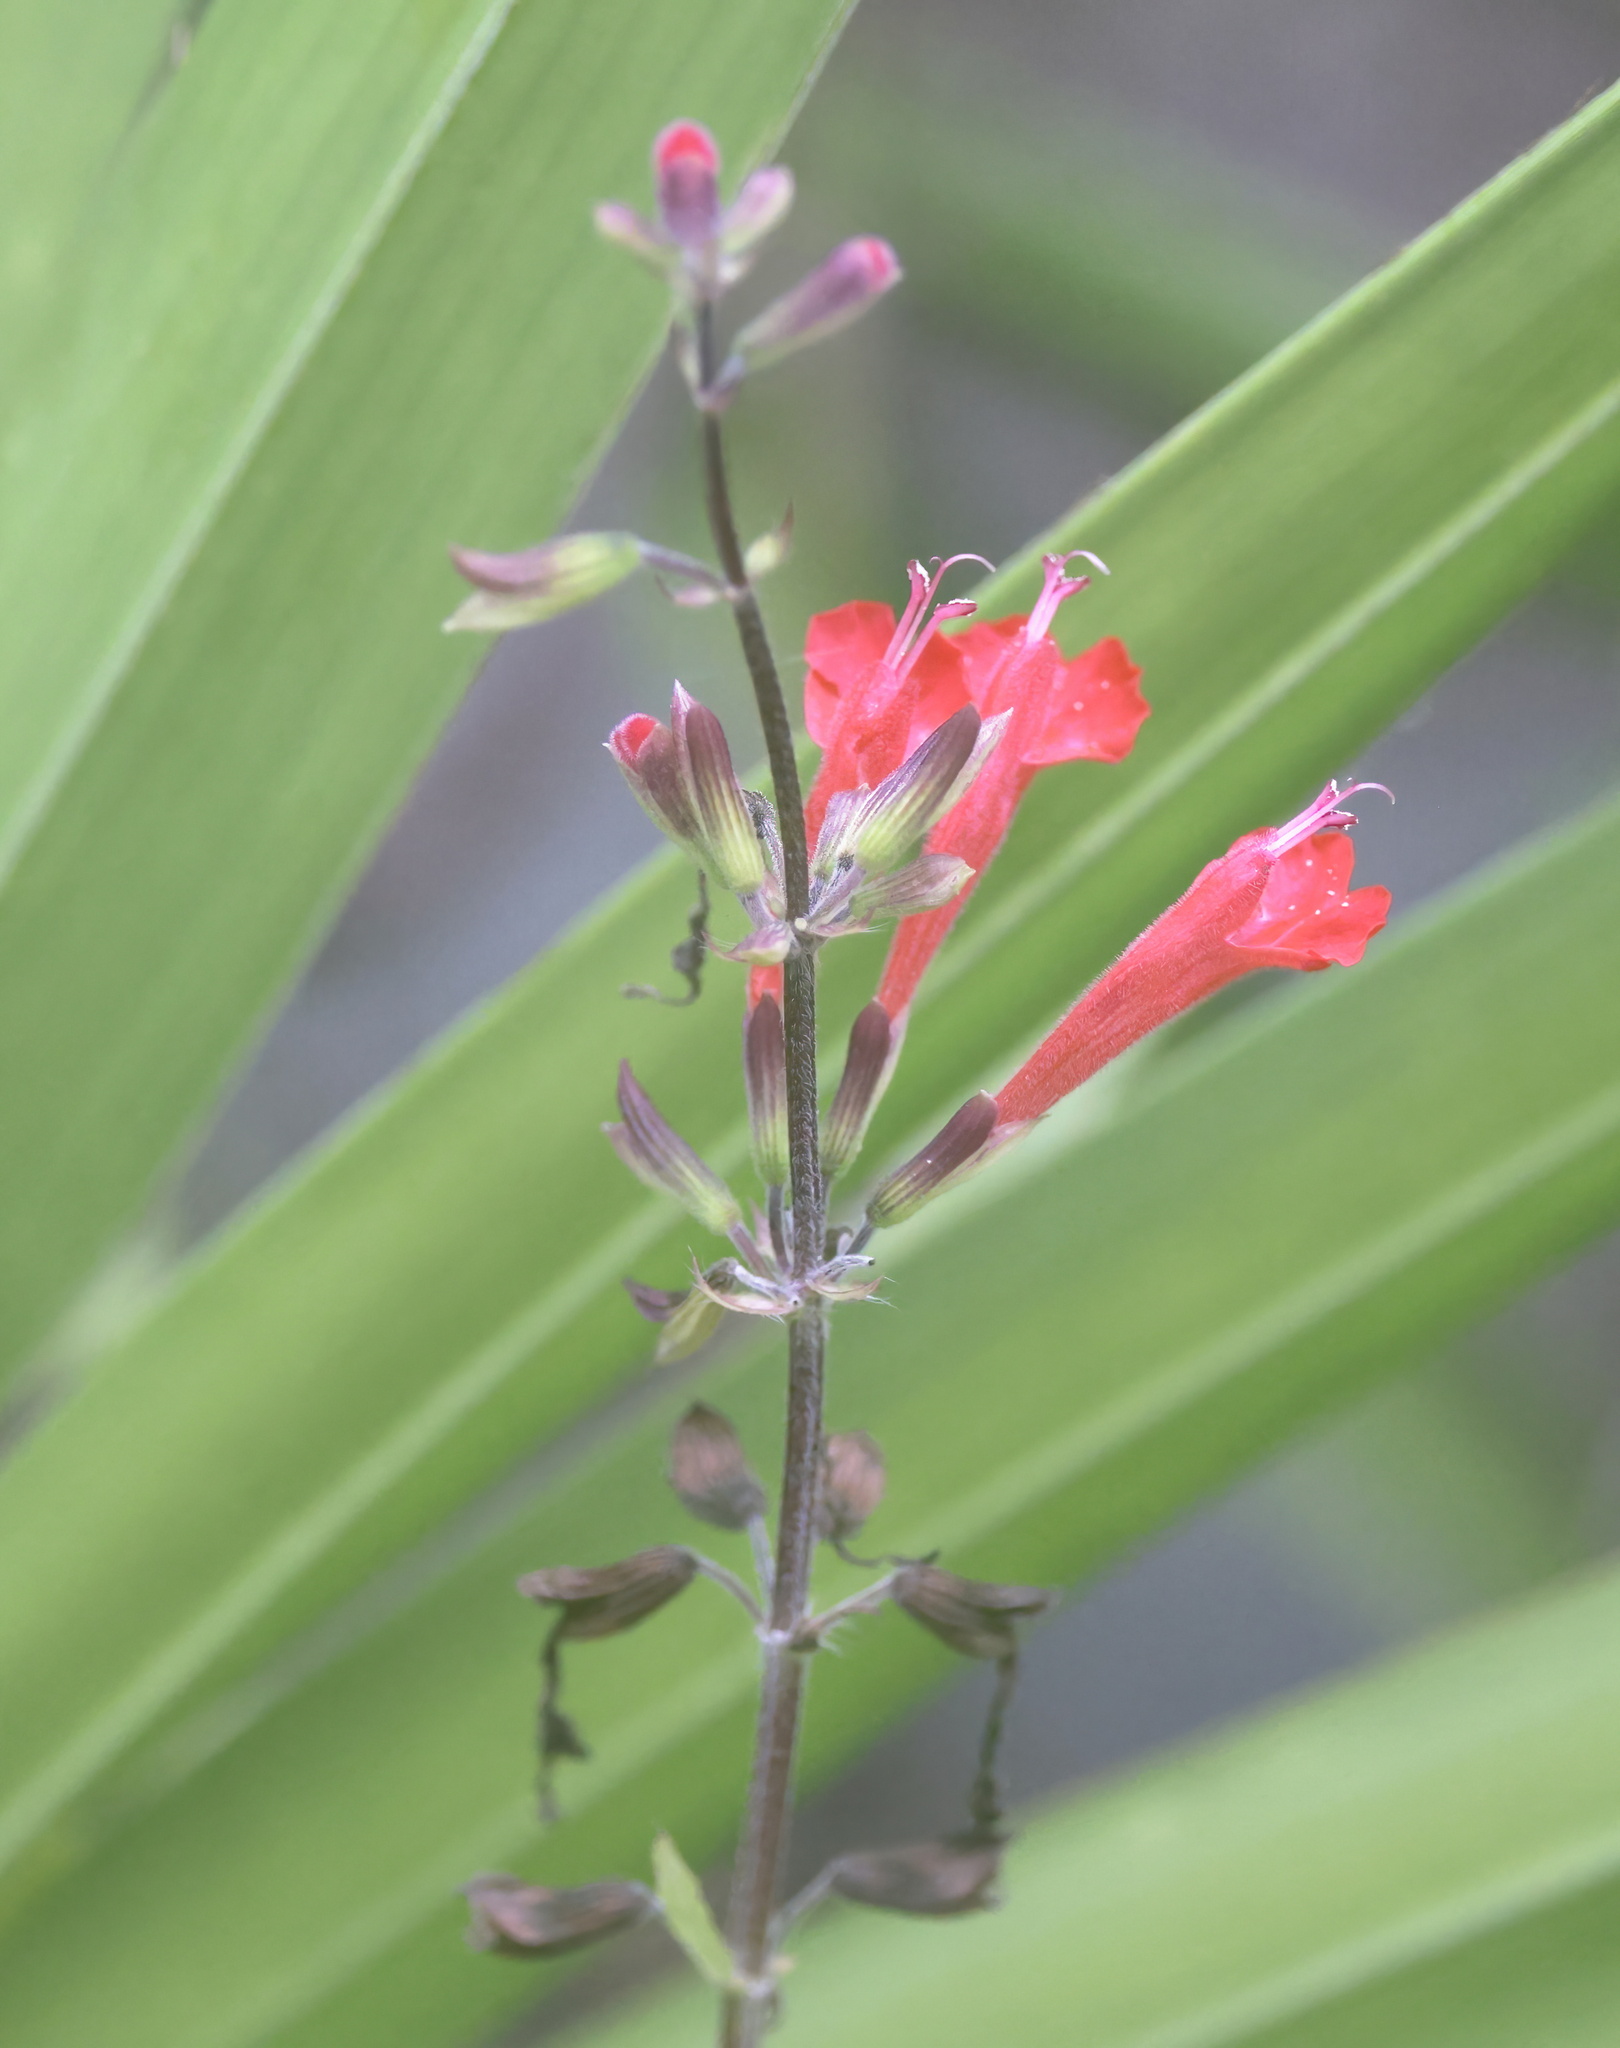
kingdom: Plantae
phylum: Tracheophyta
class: Magnoliopsida
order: Lamiales
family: Lamiaceae
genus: Salvia
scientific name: Salvia coccinea
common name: Blood sage
